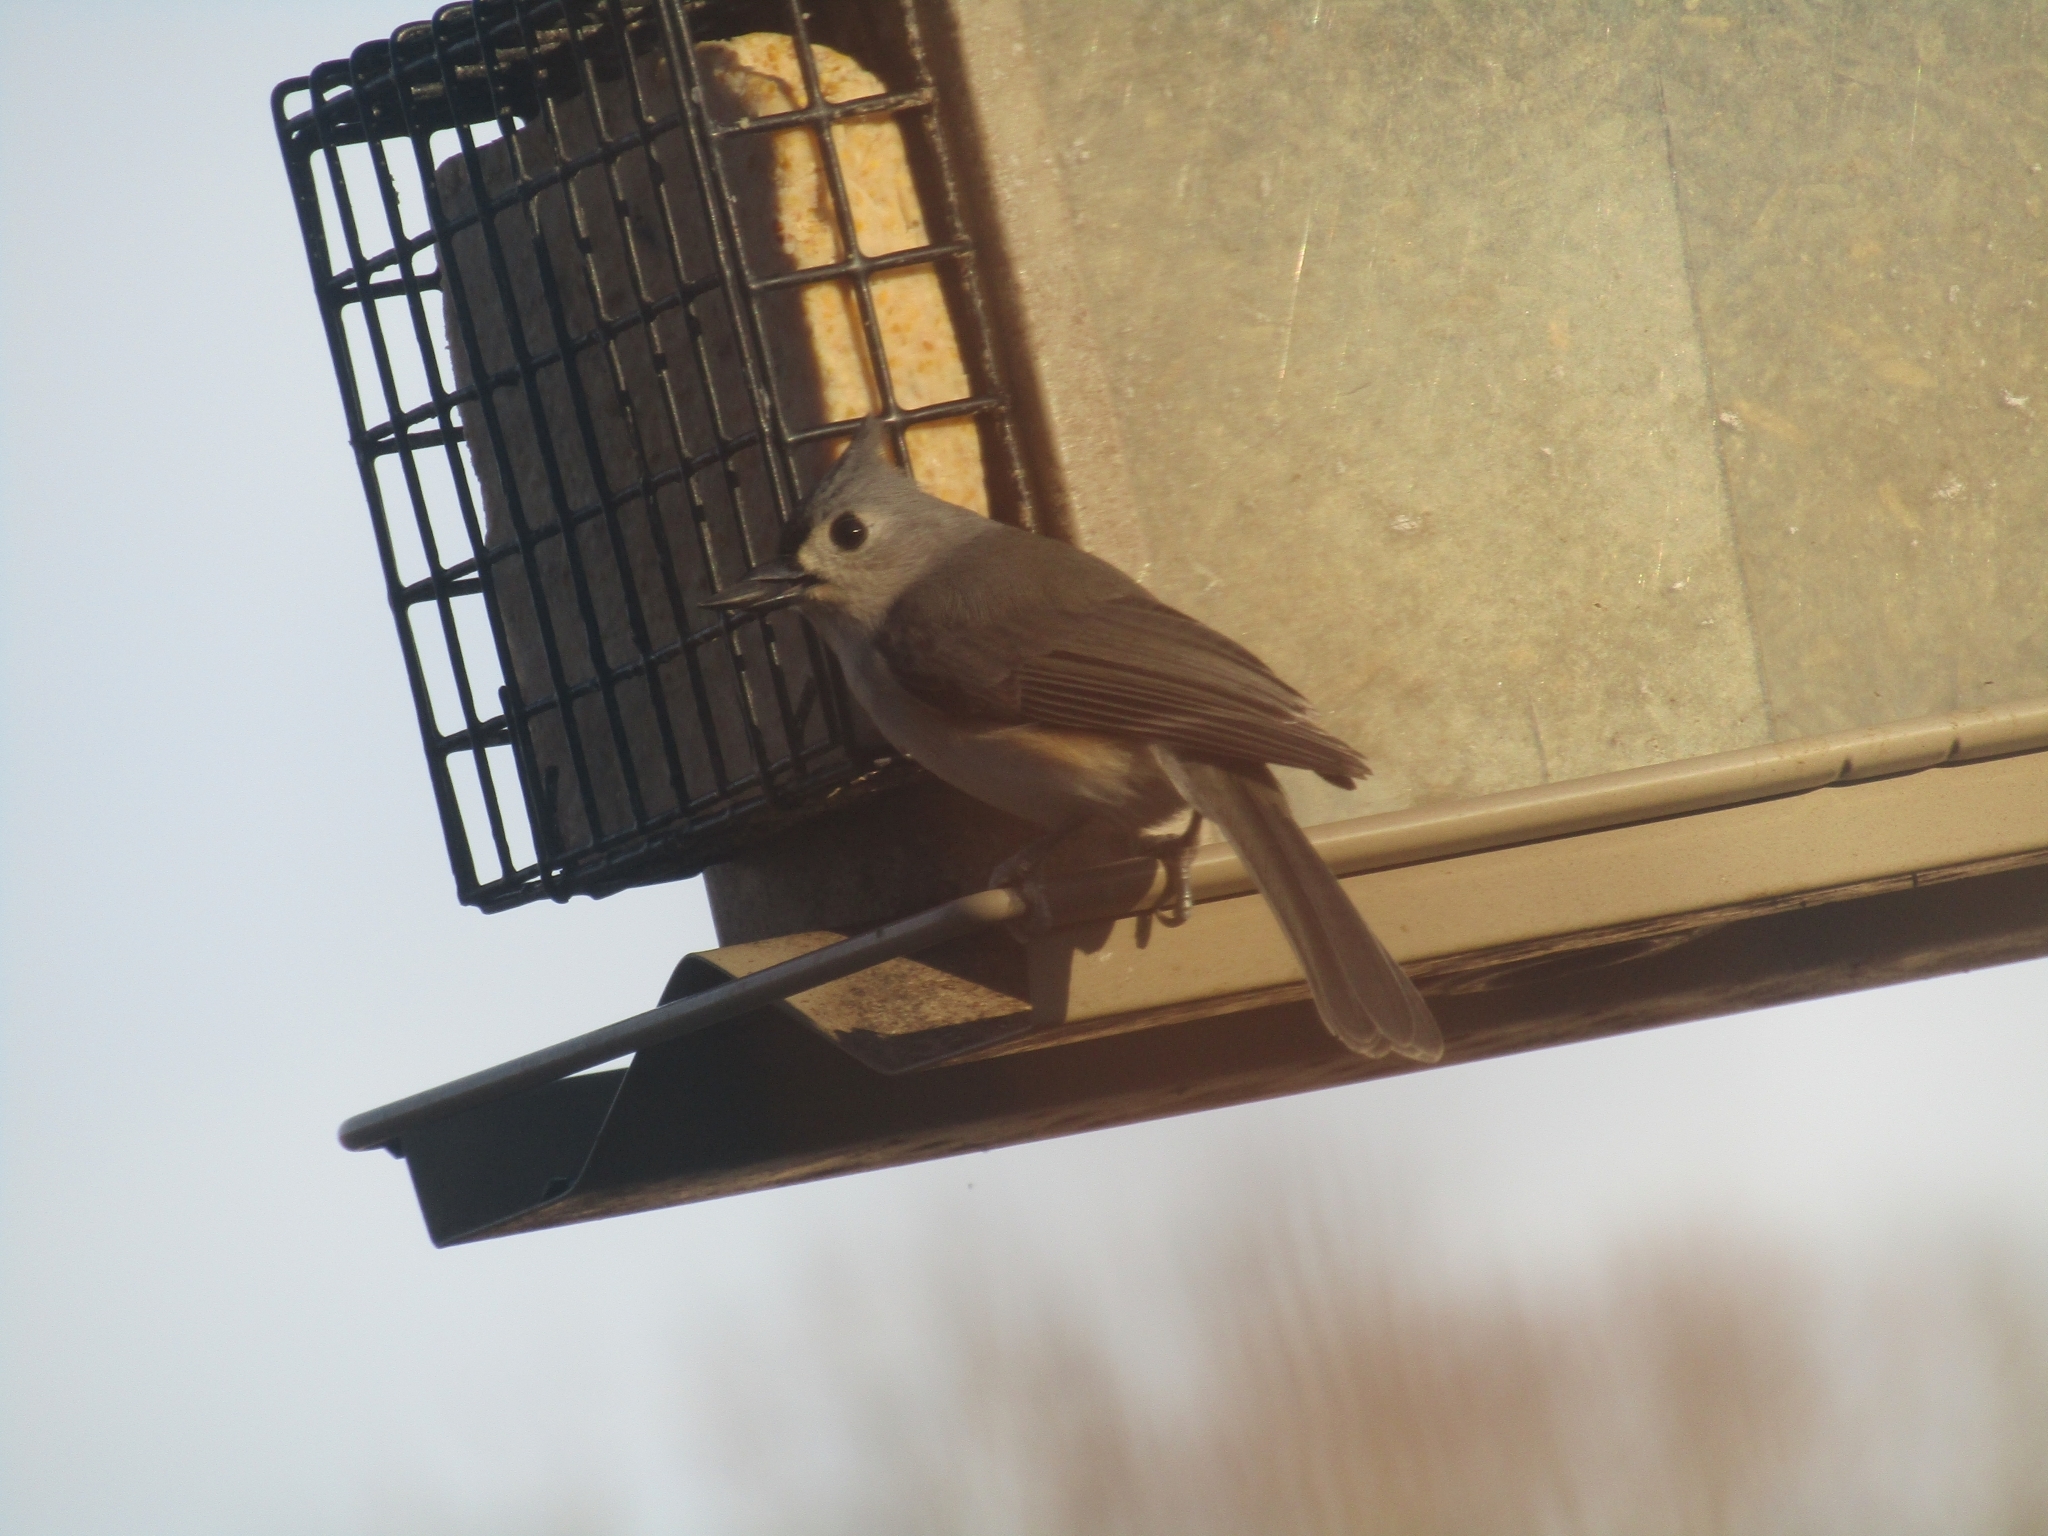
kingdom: Animalia
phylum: Chordata
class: Aves
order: Passeriformes
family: Paridae
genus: Baeolophus
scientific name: Baeolophus bicolor
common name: Tufted titmouse
